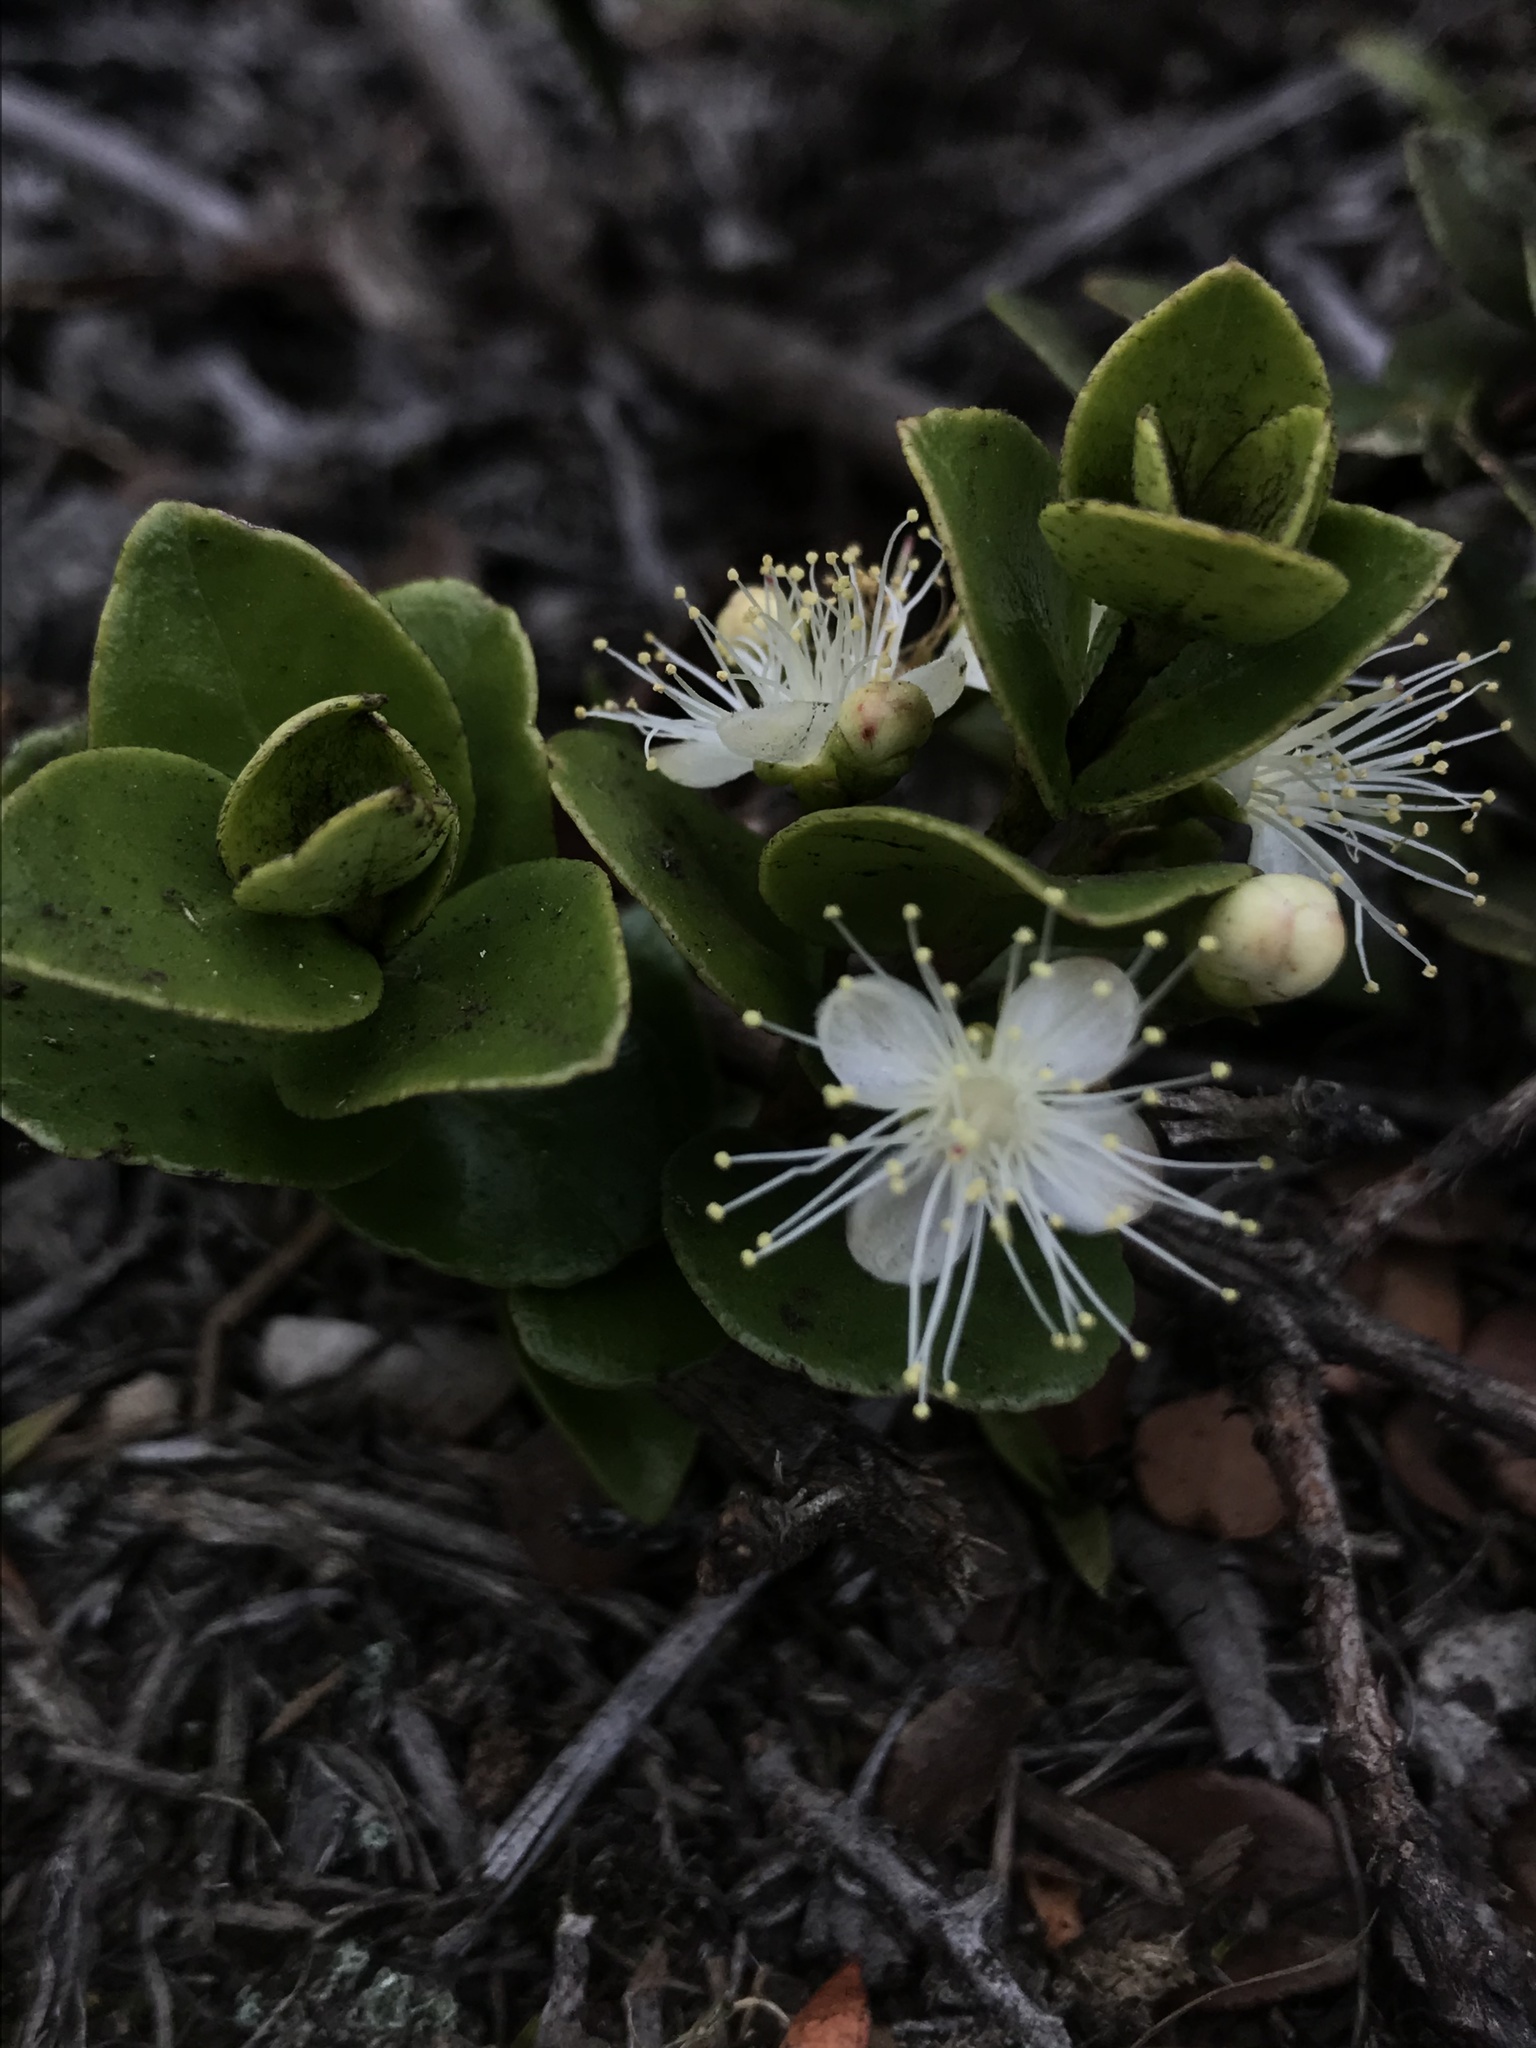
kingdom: Plantae
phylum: Tracheophyta
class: Magnoliopsida
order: Myrtales
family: Myrtaceae
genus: Myrcianthes
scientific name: Myrcianthes leucoxyla
